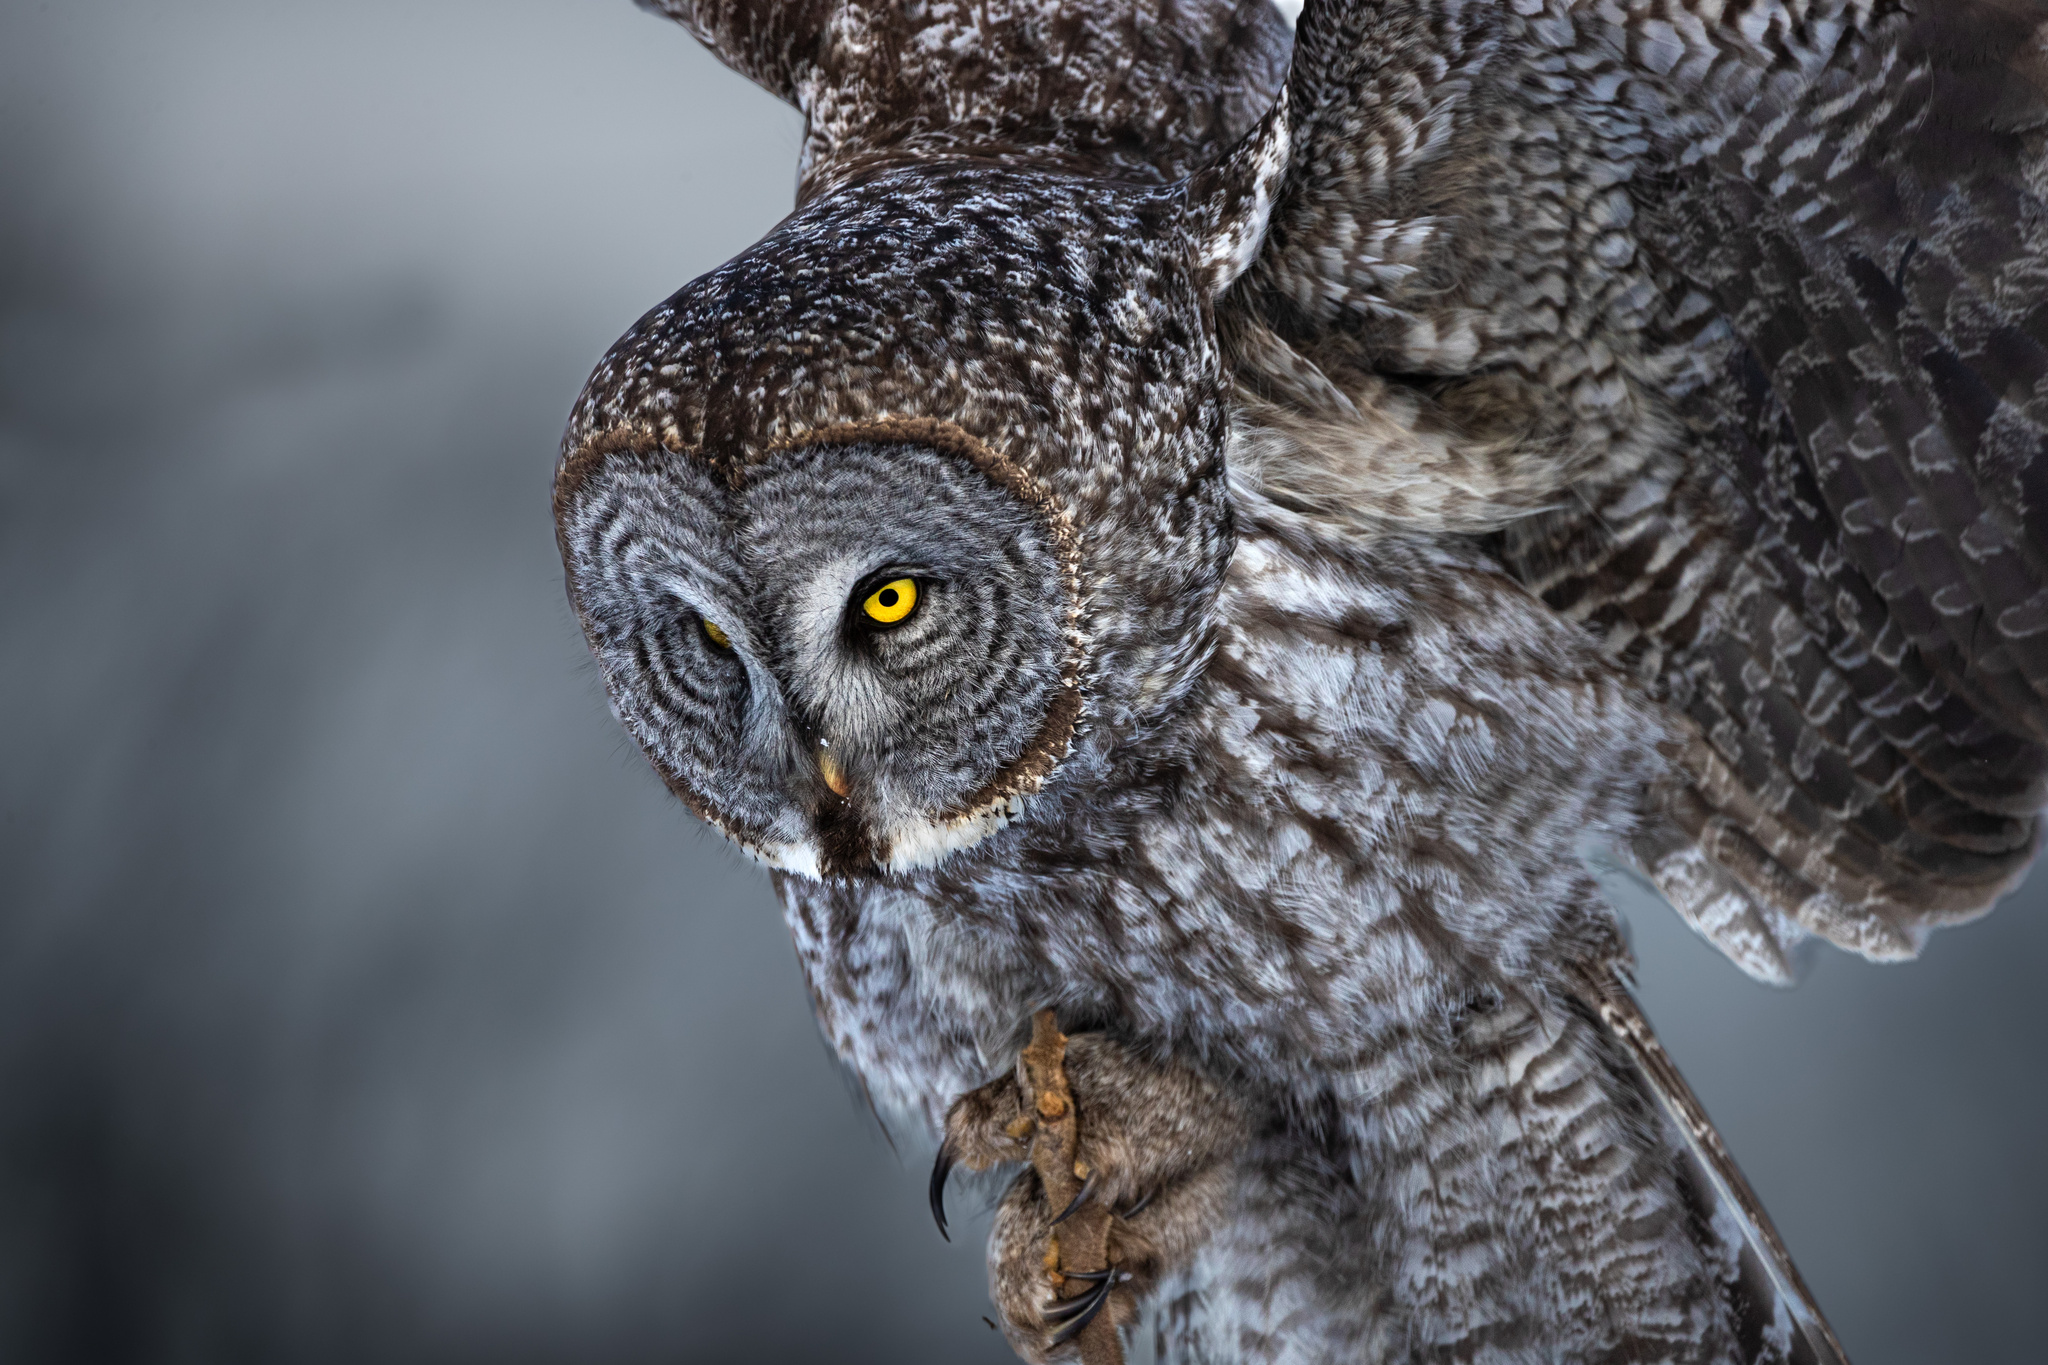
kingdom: Animalia
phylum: Chordata
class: Aves
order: Strigiformes
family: Strigidae
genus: Strix
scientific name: Strix nebulosa
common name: Great grey owl
